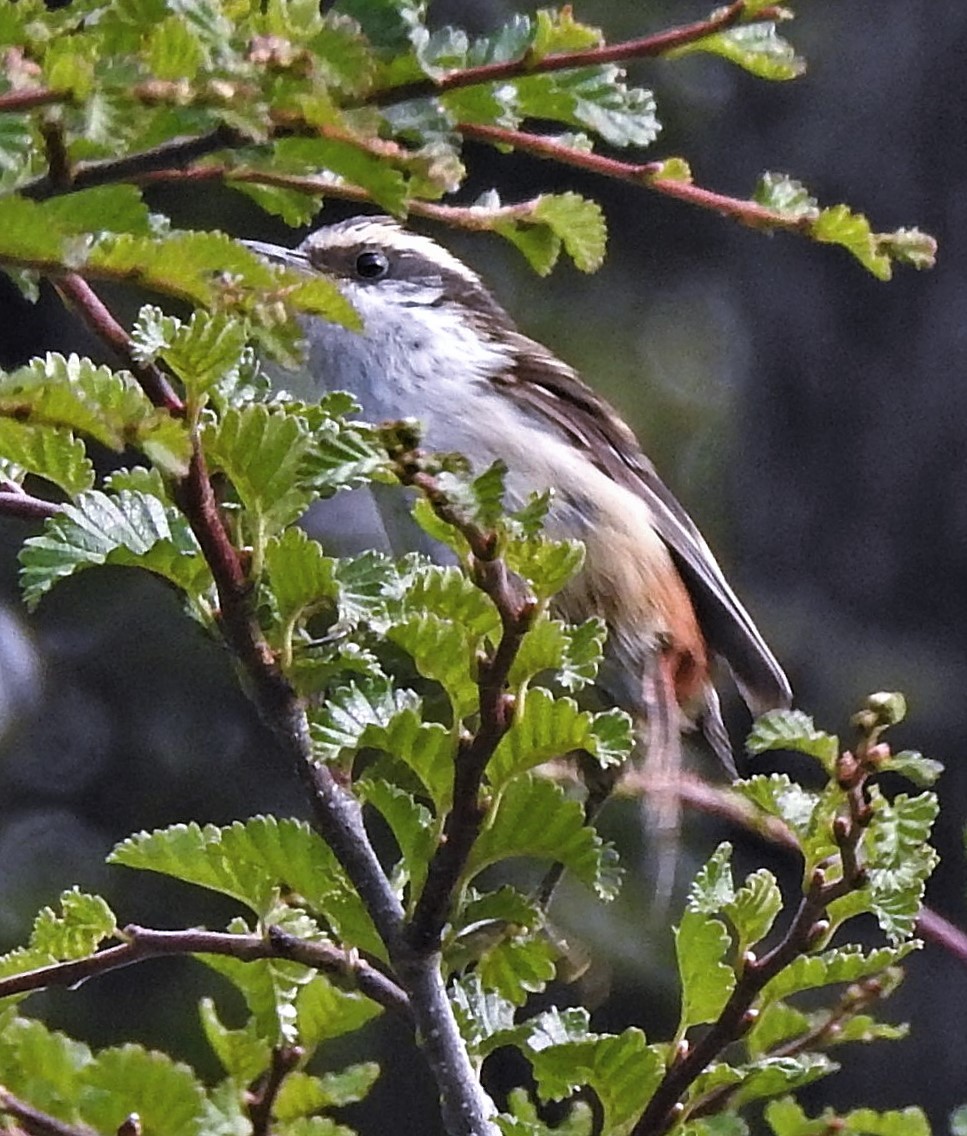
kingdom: Animalia
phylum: Chordata
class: Aves
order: Passeriformes
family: Furnariidae
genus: Aphrastura
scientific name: Aphrastura spinicauda
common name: Thorn-tailed rayadito
